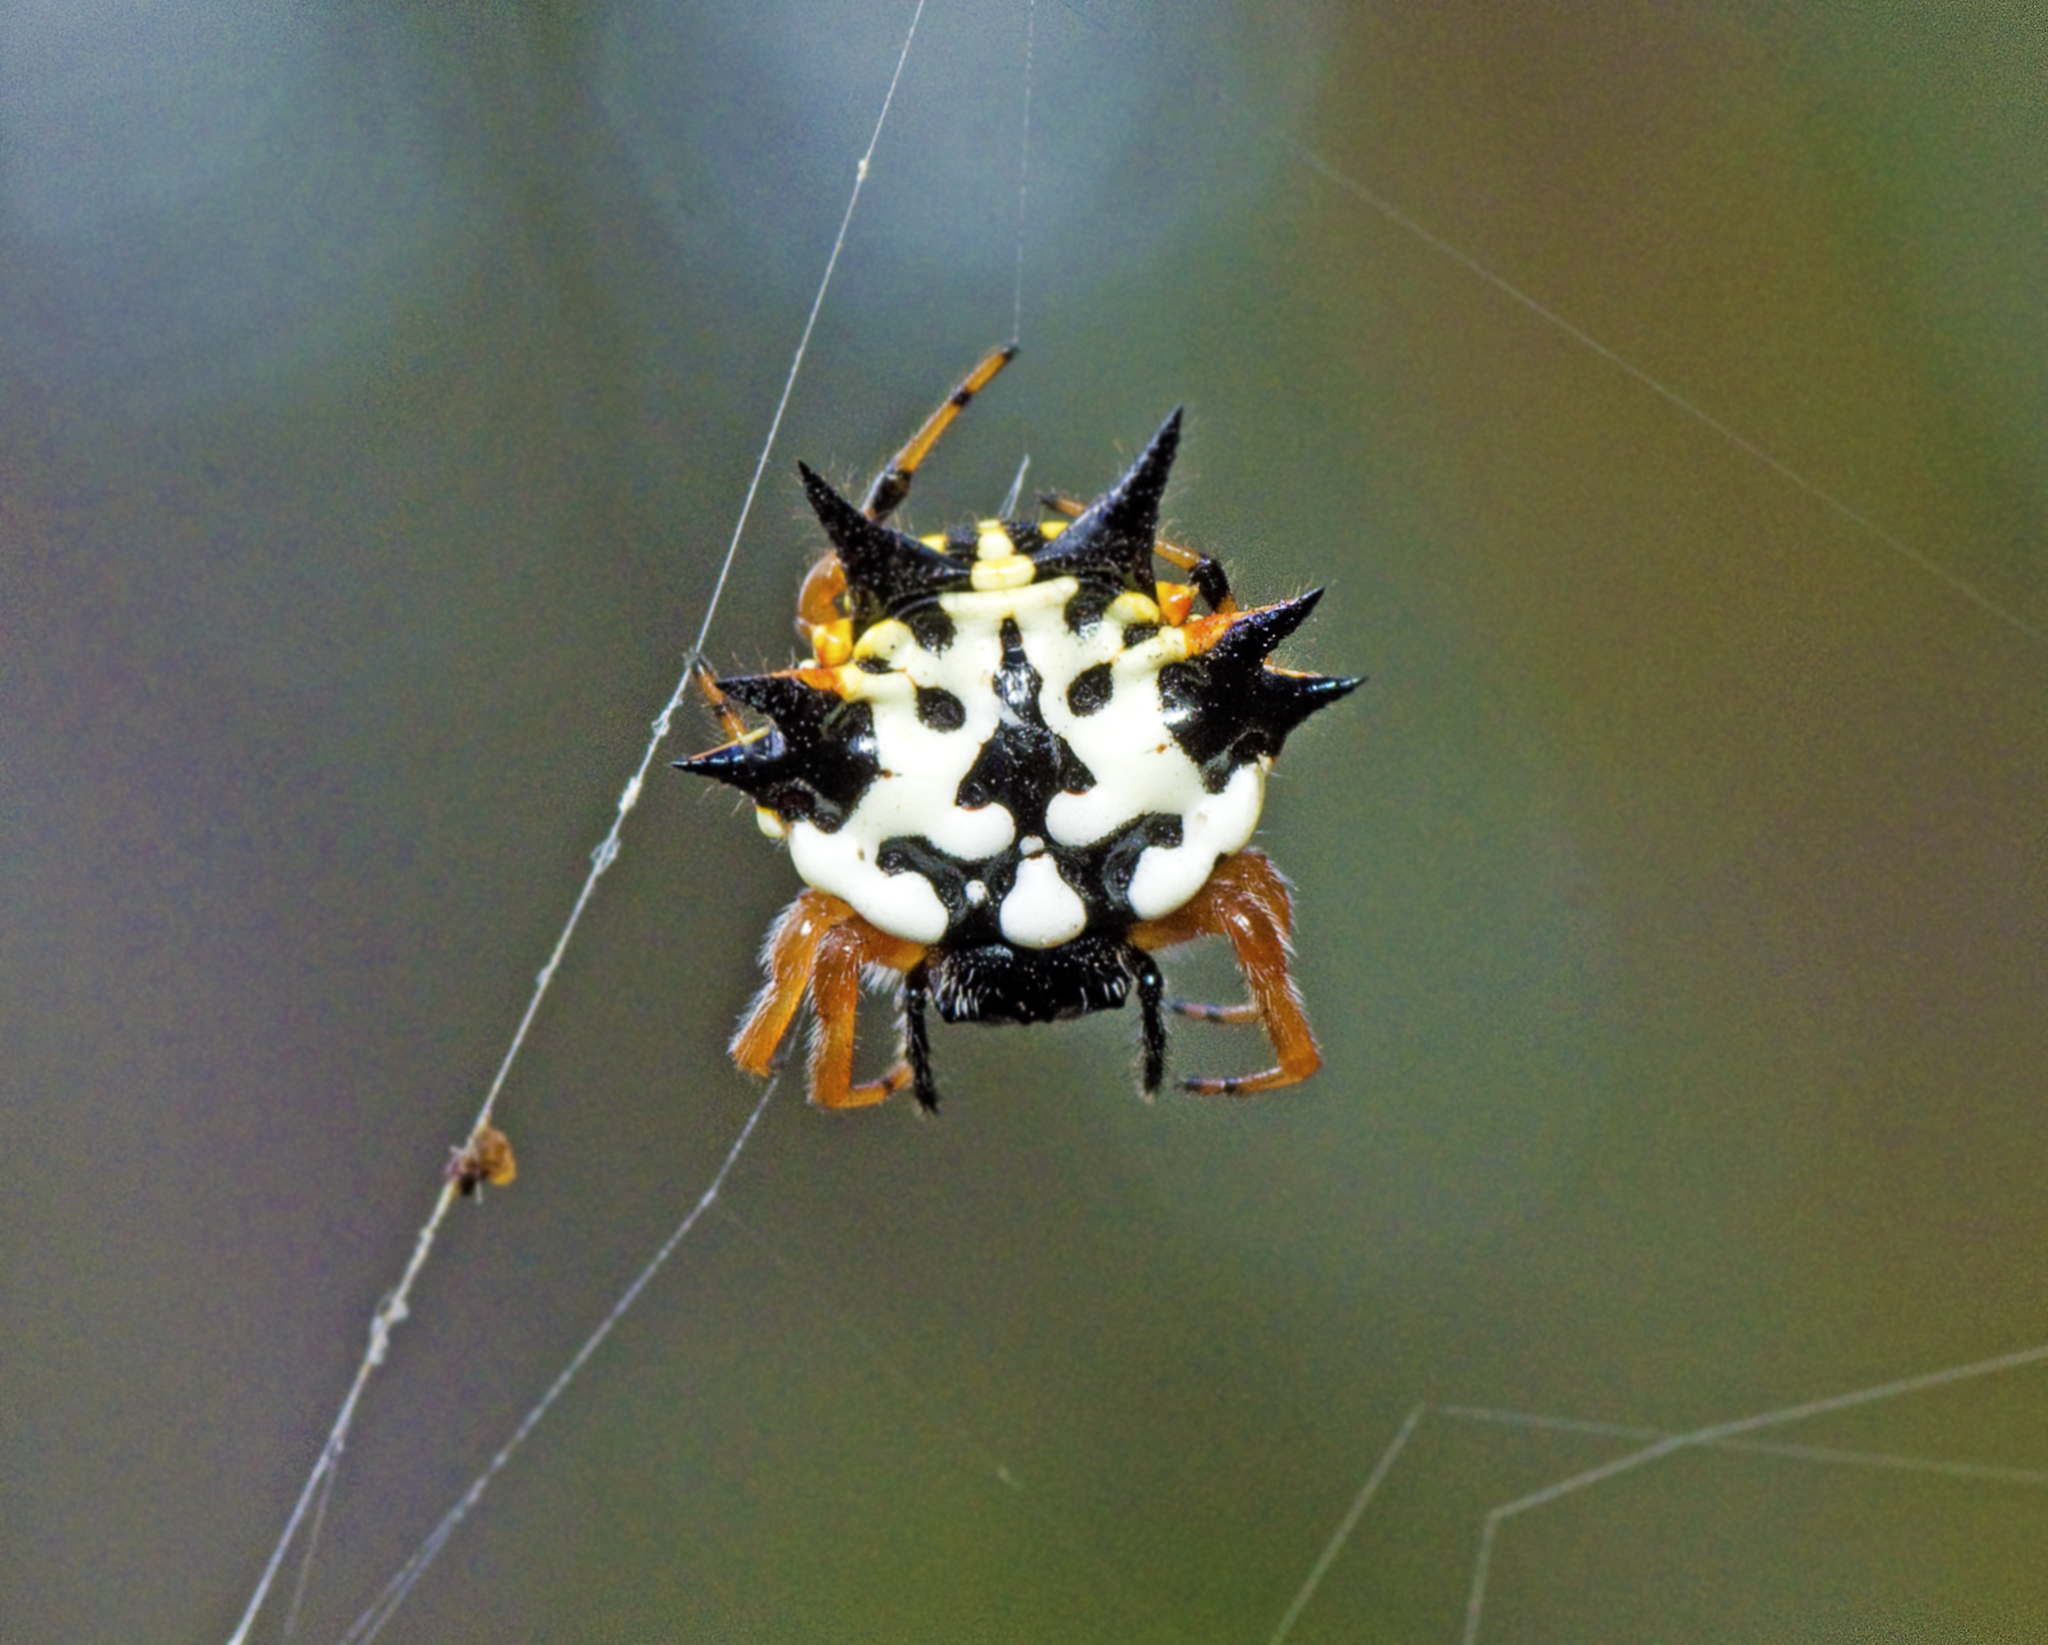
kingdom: Animalia
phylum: Arthropoda
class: Arachnida
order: Araneae
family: Araneidae
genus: Austracantha
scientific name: Austracantha minax
